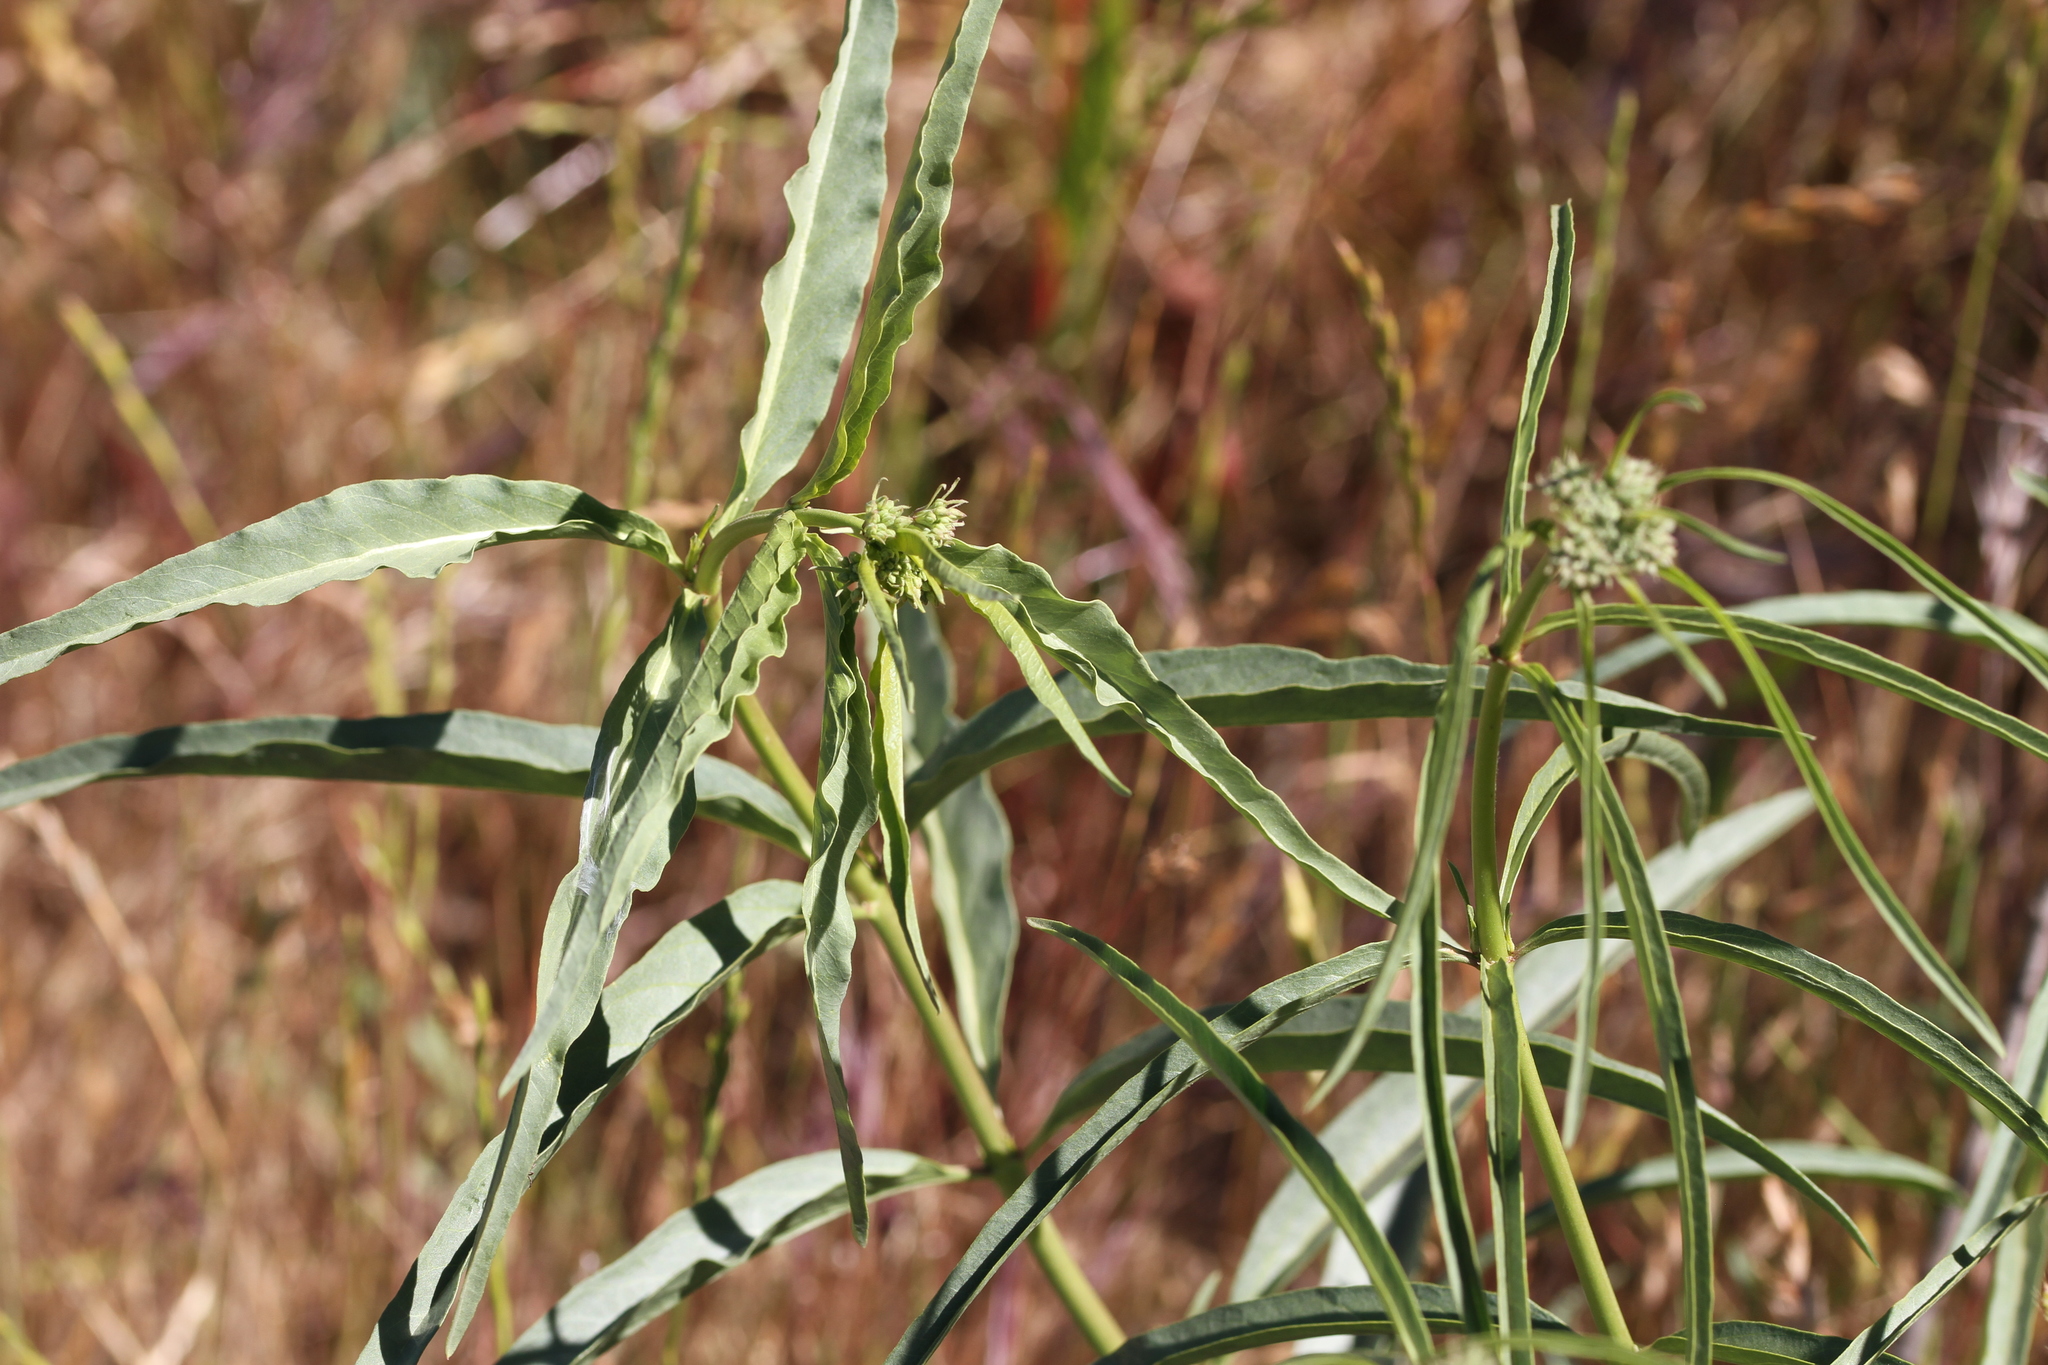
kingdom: Plantae
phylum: Tracheophyta
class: Magnoliopsida
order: Gentianales
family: Apocynaceae
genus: Asclepias
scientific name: Asclepias fascicularis
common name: Mexican milkweed
